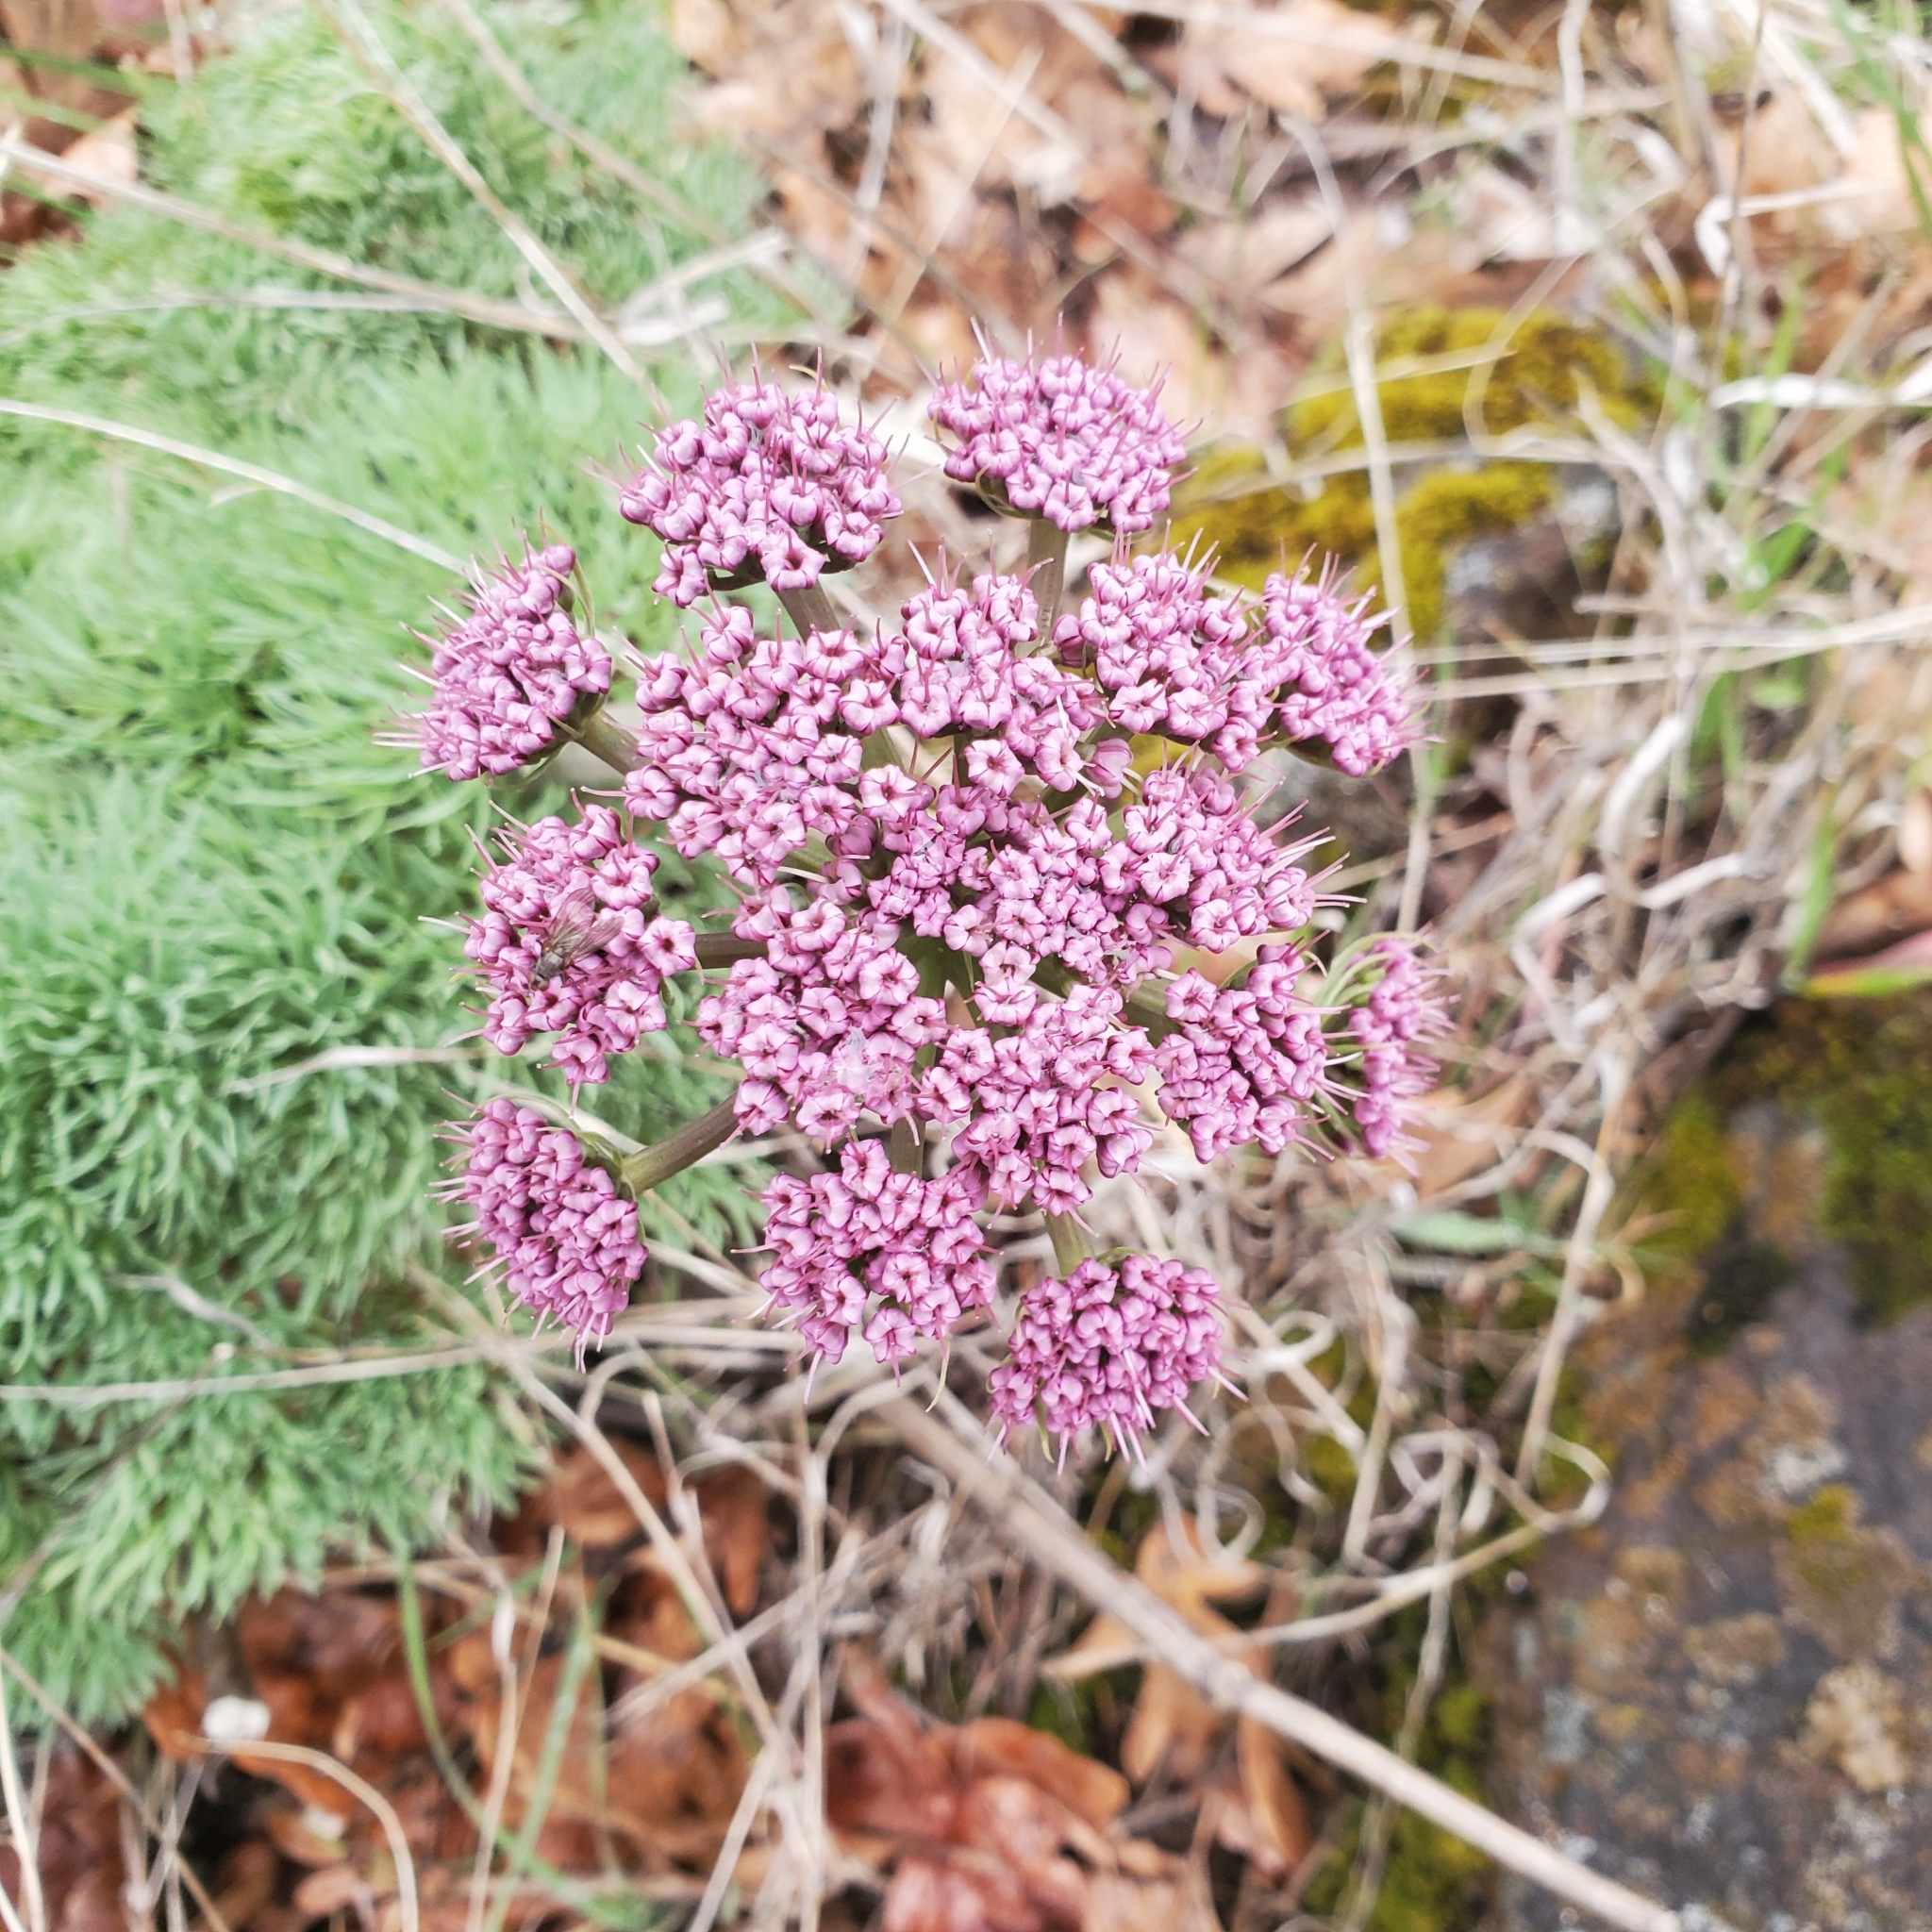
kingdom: Plantae
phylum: Tracheophyta
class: Magnoliopsida
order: Apiales
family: Apiaceae
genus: Lomatium
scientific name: Lomatium columbianum
